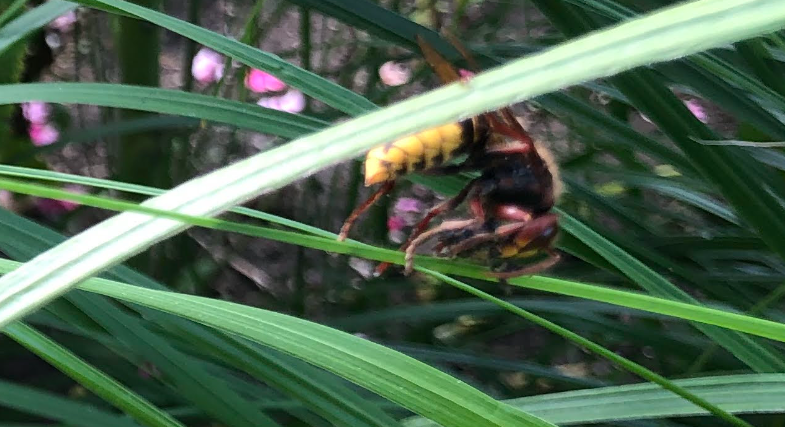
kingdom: Animalia
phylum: Arthropoda
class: Insecta
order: Hymenoptera
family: Vespidae
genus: Vespa
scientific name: Vespa crabro
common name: Hornet
